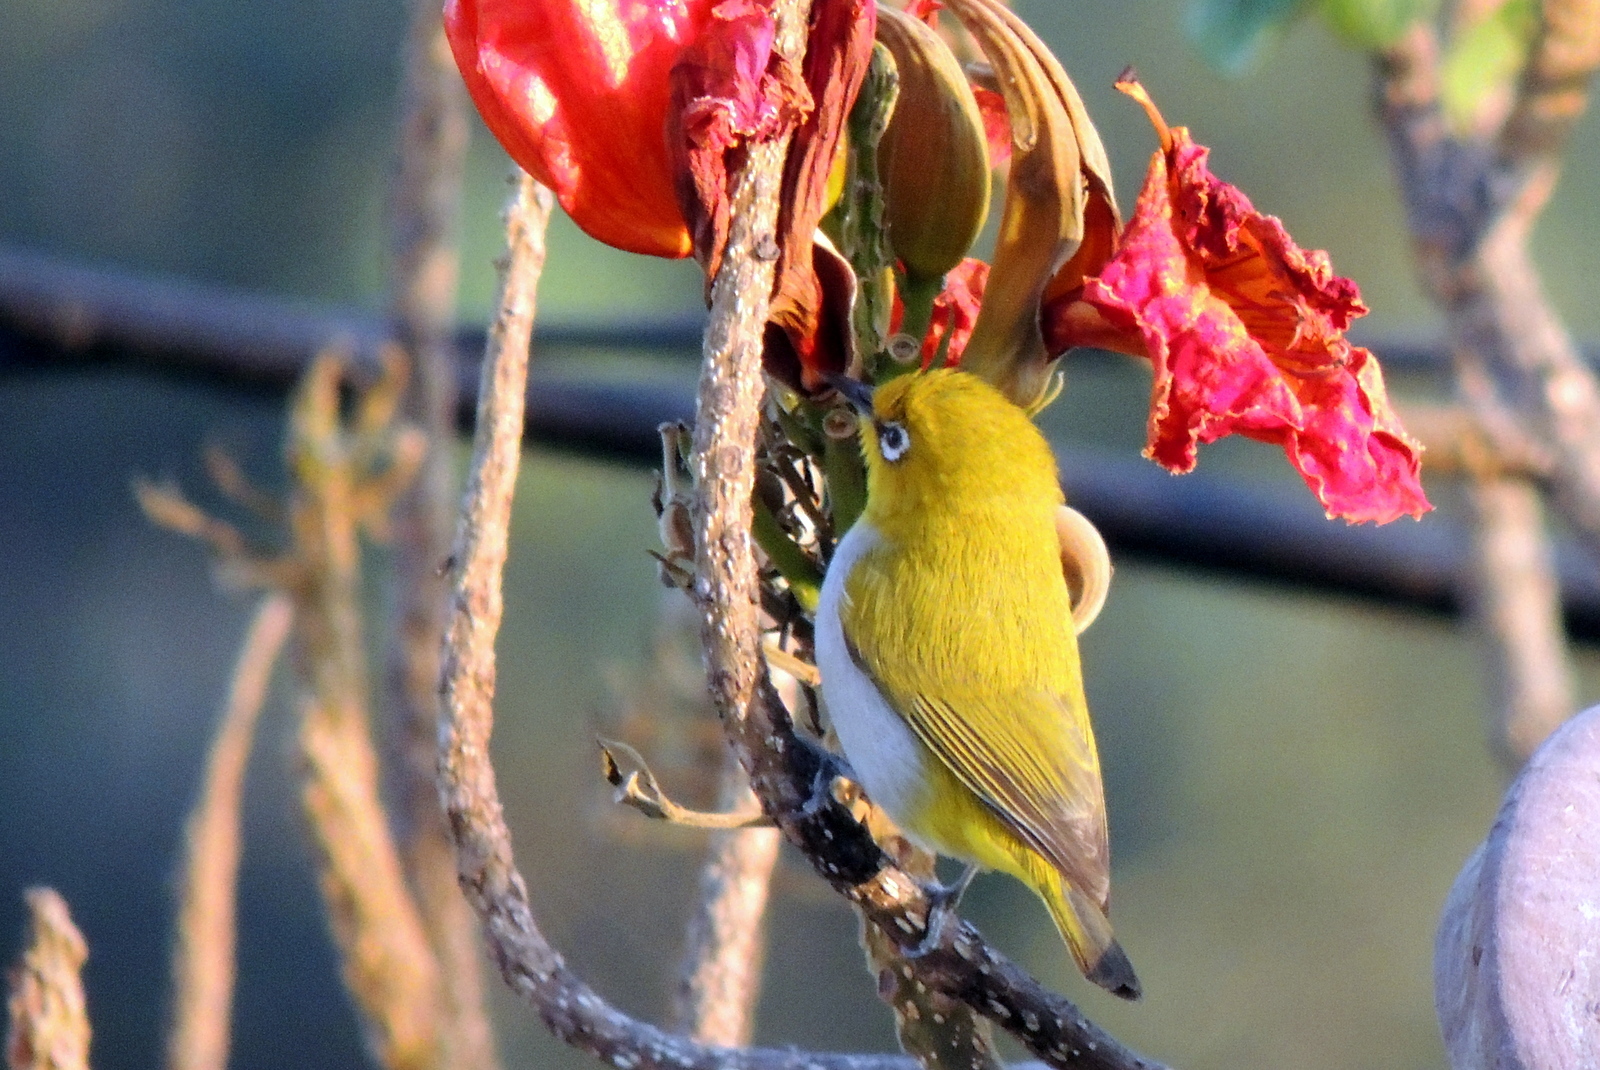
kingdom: Animalia
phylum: Chordata
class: Aves
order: Passeriformes
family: Zosteropidae
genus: Zosterops
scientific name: Zosterops palpebrosus
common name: Oriental white-eye
